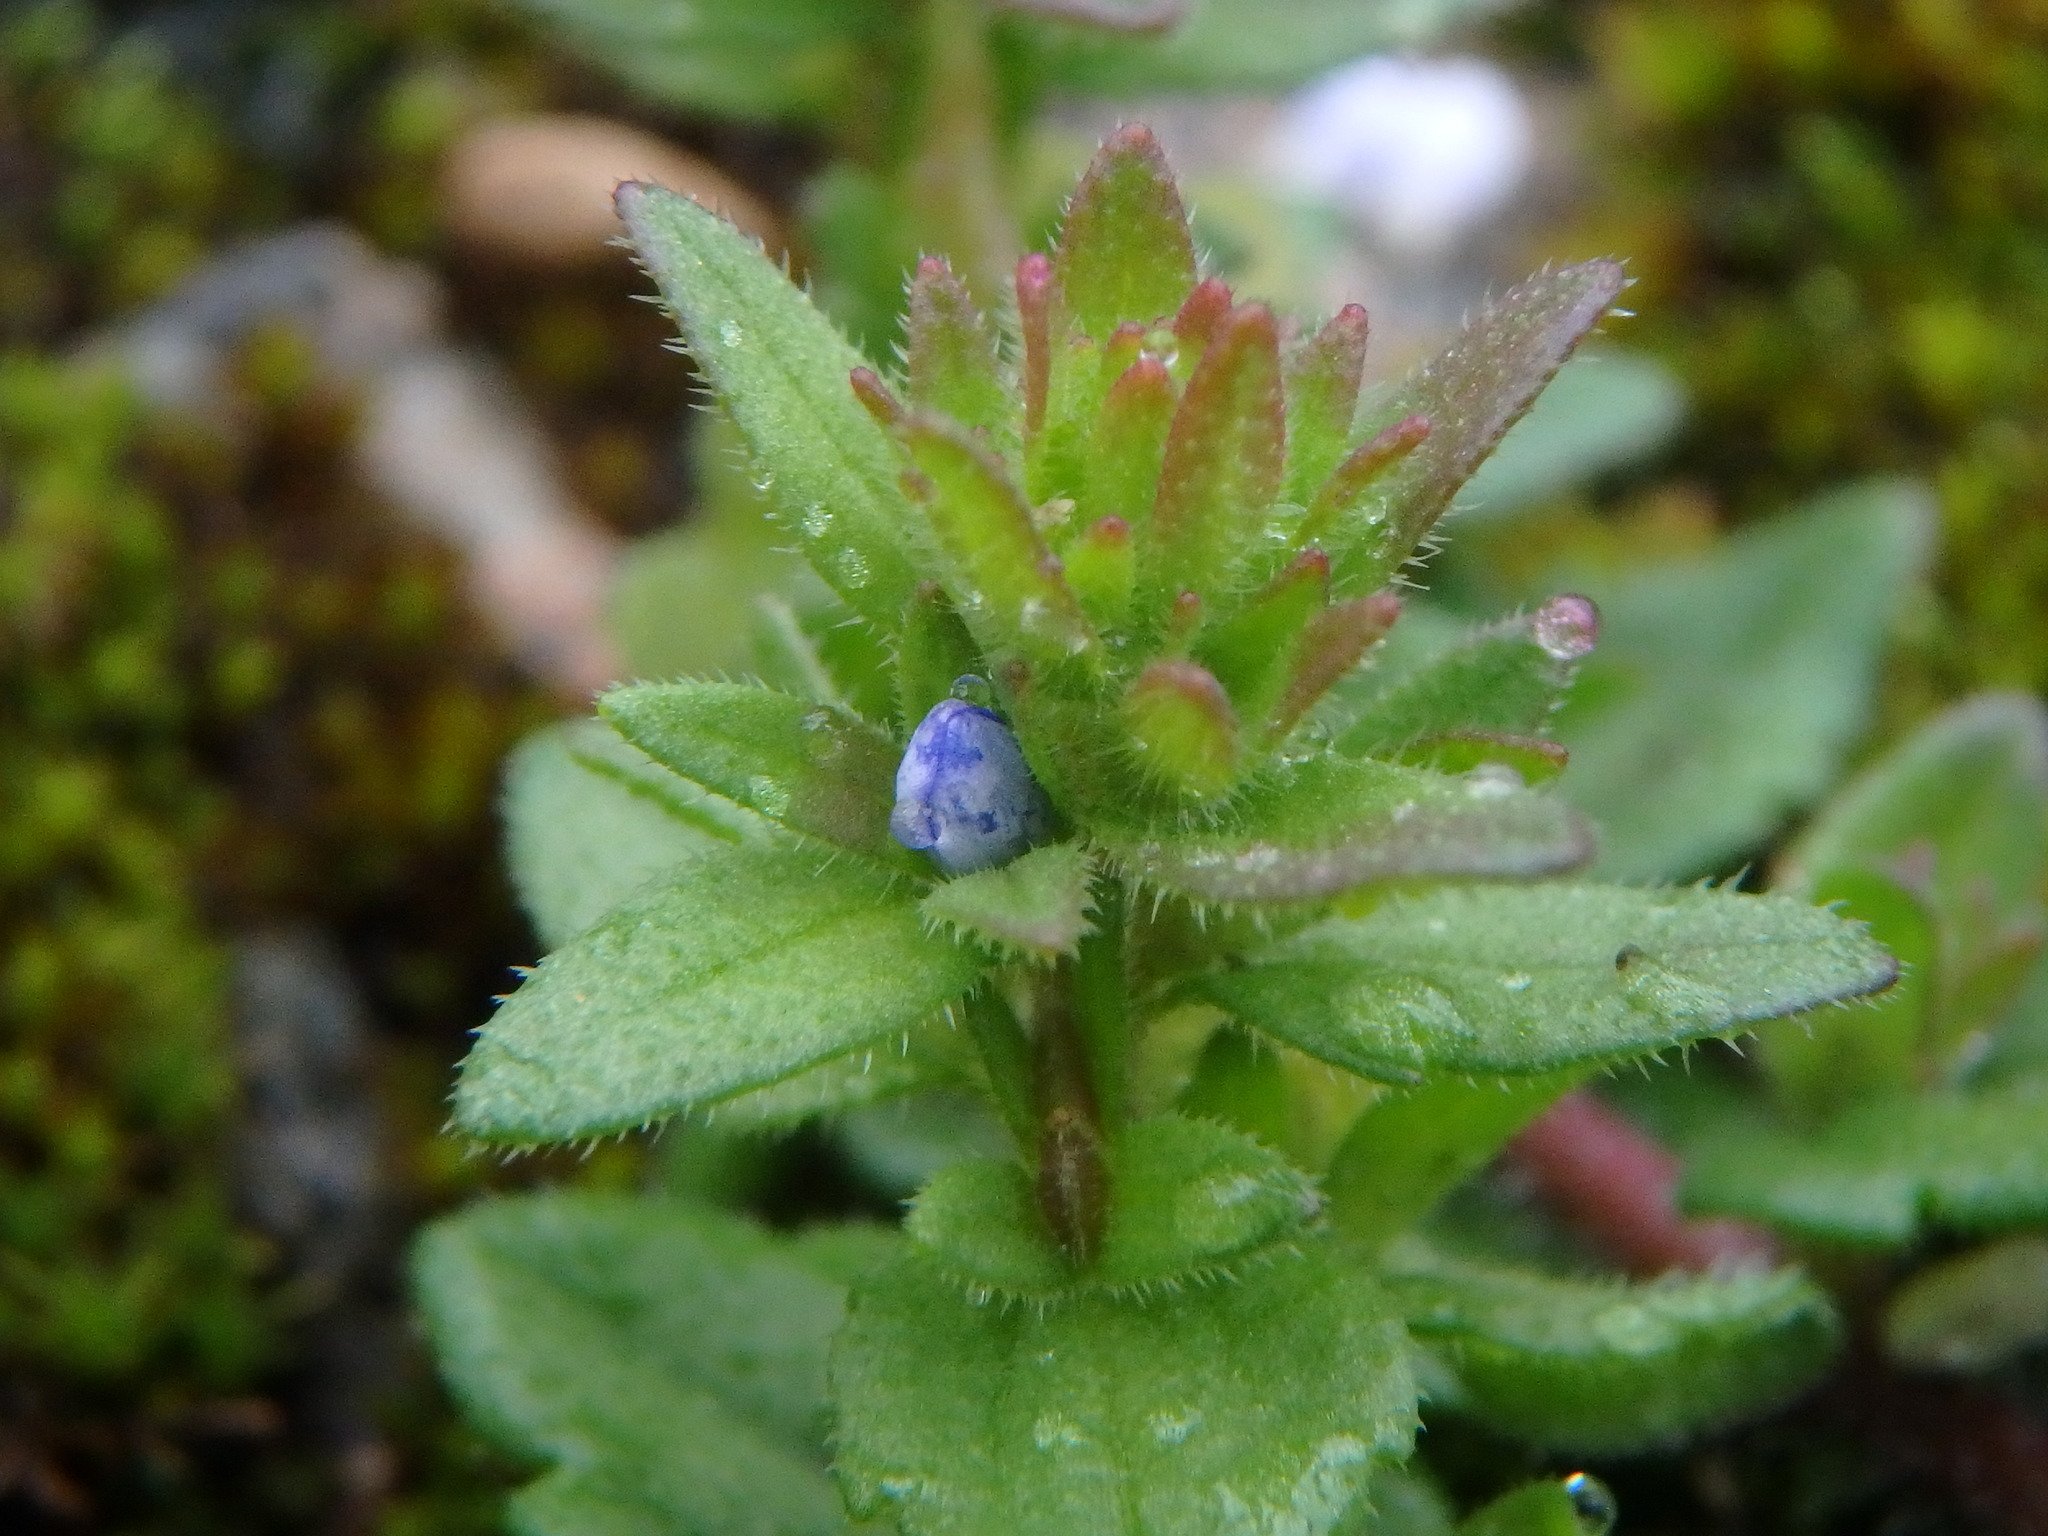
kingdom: Plantae
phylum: Tracheophyta
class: Magnoliopsida
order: Lamiales
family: Plantaginaceae
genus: Veronica
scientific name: Veronica arvensis
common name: Corn speedwell
